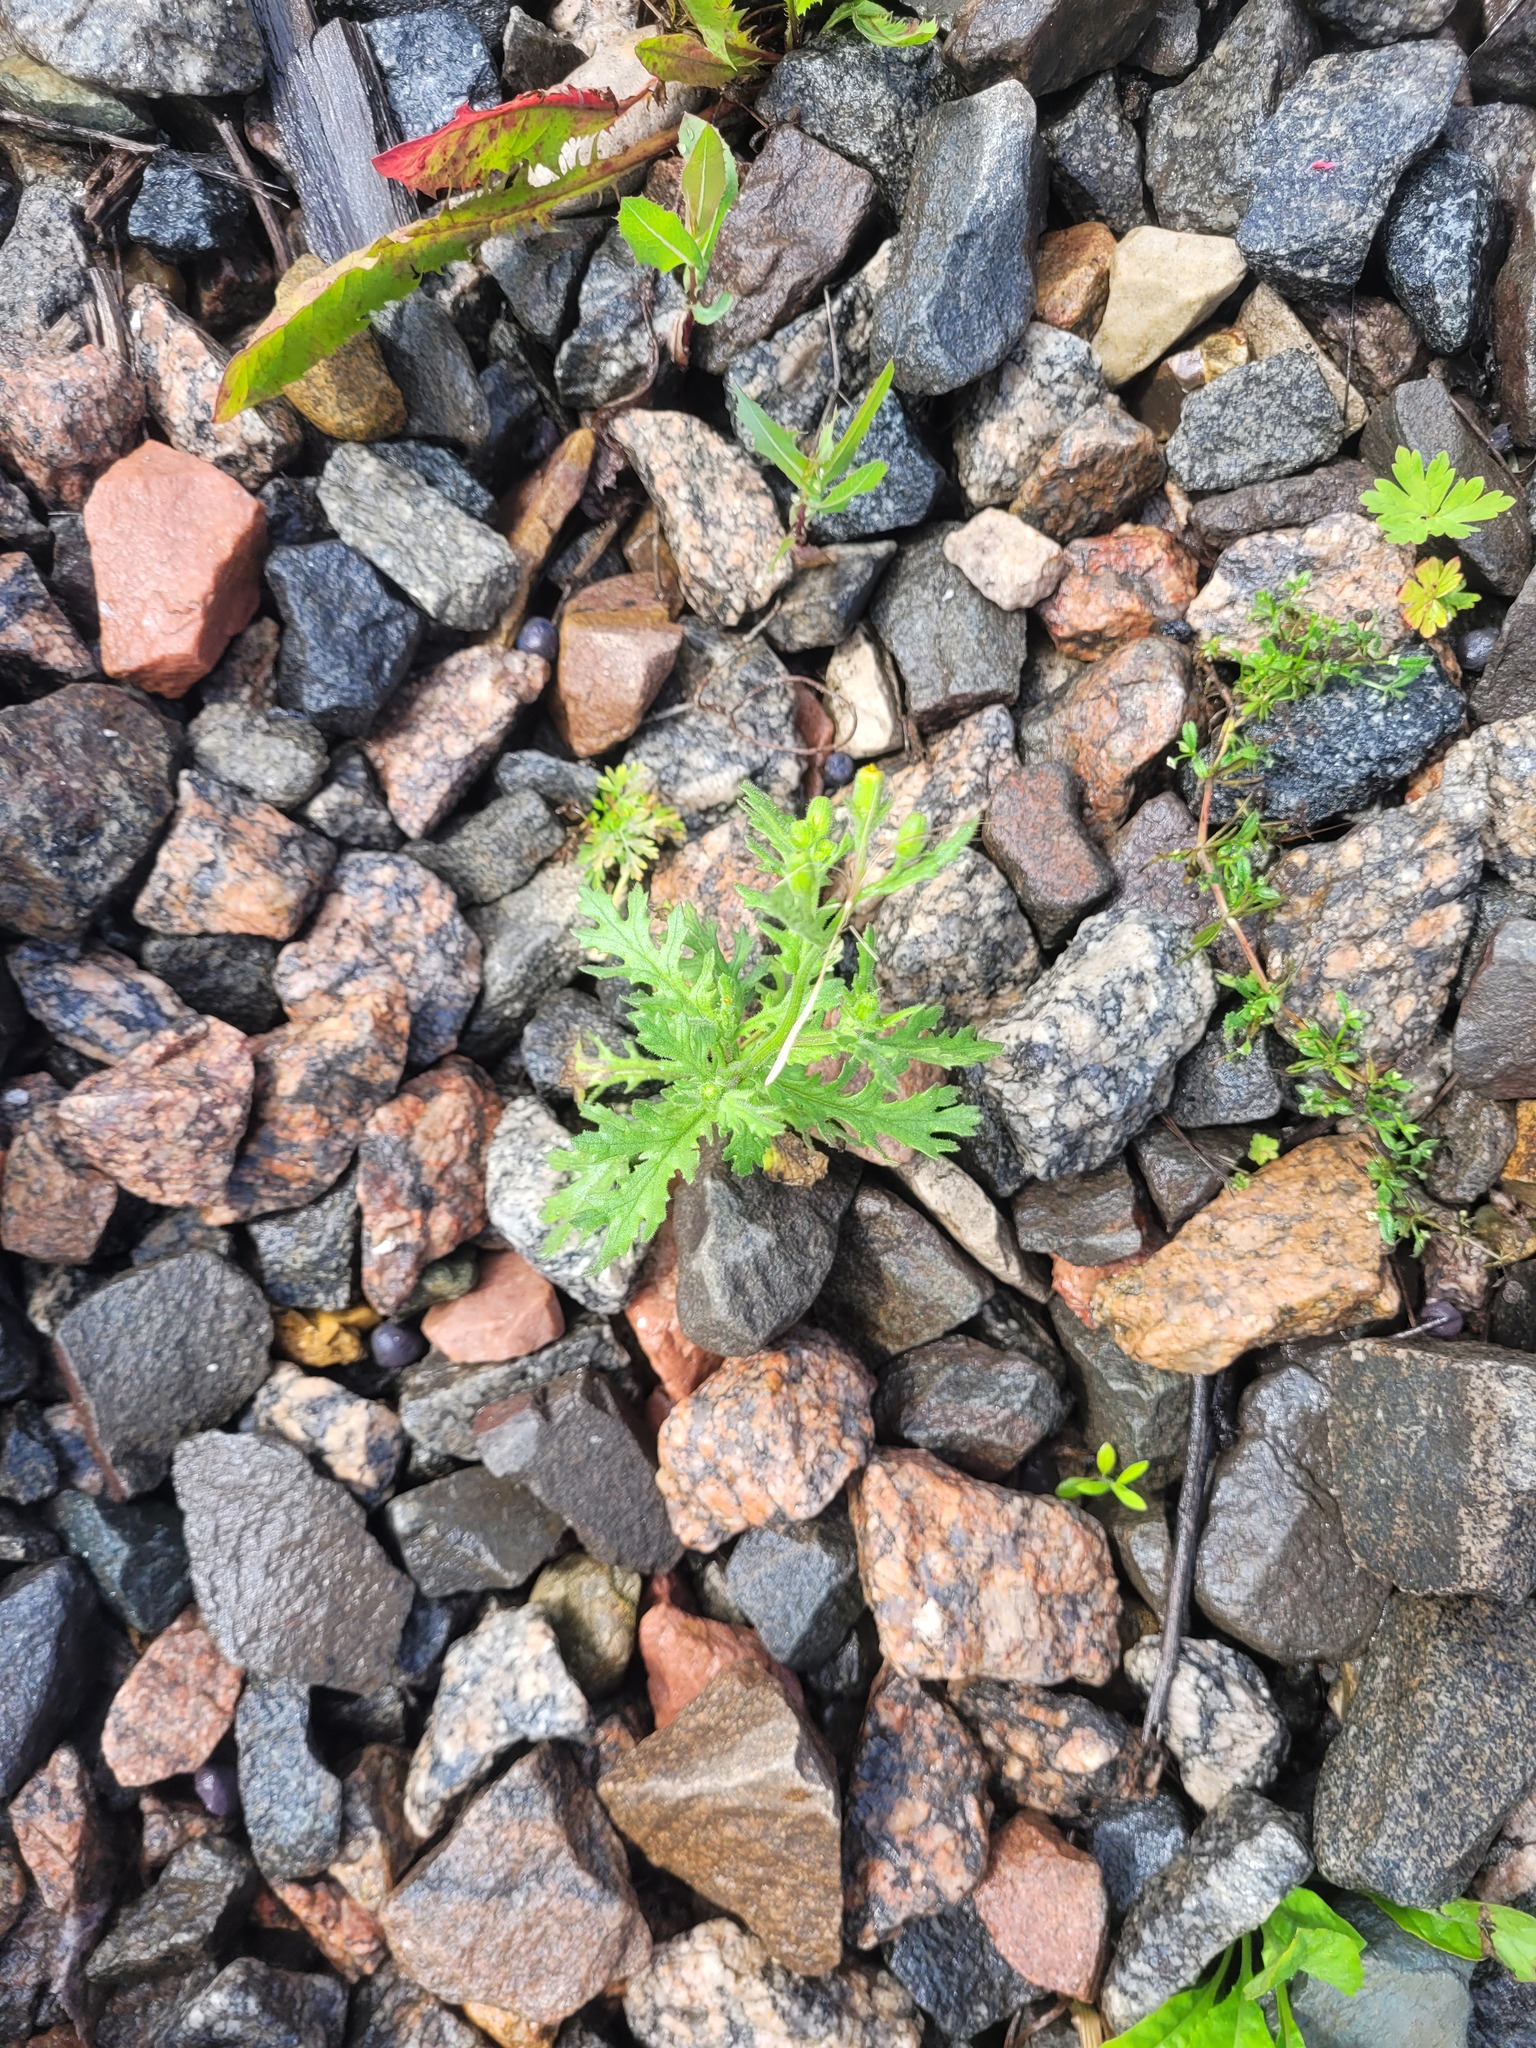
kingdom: Plantae
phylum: Tracheophyta
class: Magnoliopsida
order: Asterales
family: Asteraceae
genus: Senecio
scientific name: Senecio viscosus
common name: Sticky groundsel
